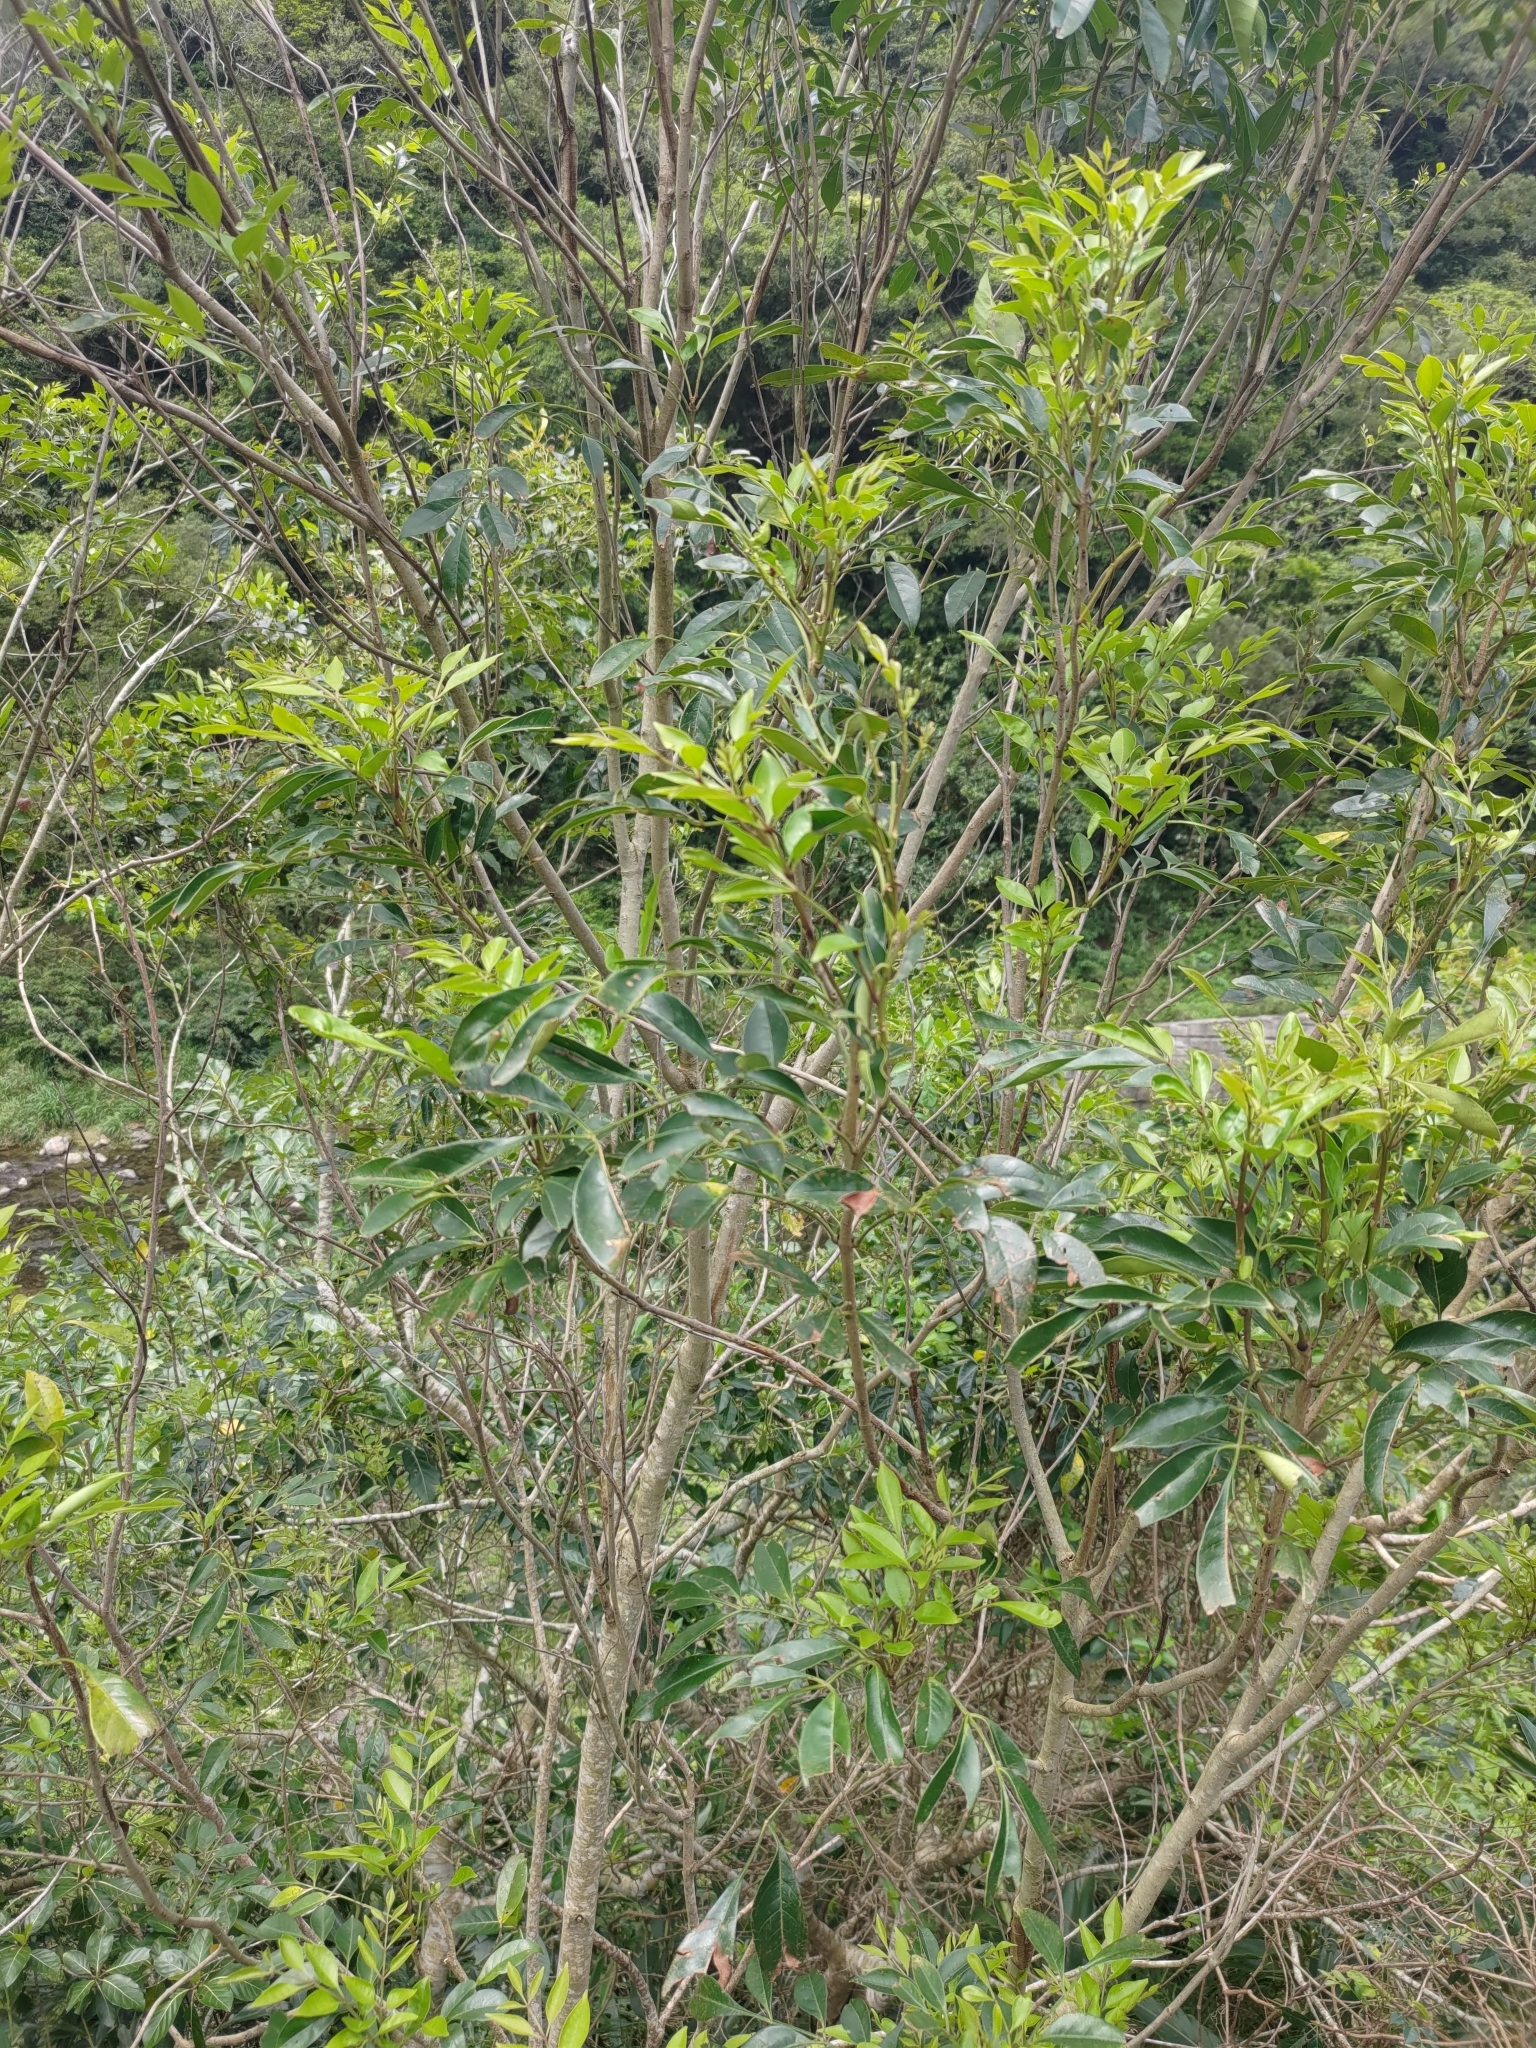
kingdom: Plantae
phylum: Tracheophyta
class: Magnoliopsida
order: Lamiales
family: Oleaceae
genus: Fraxinus
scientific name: Fraxinus griffithii
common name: Himalayan ash
